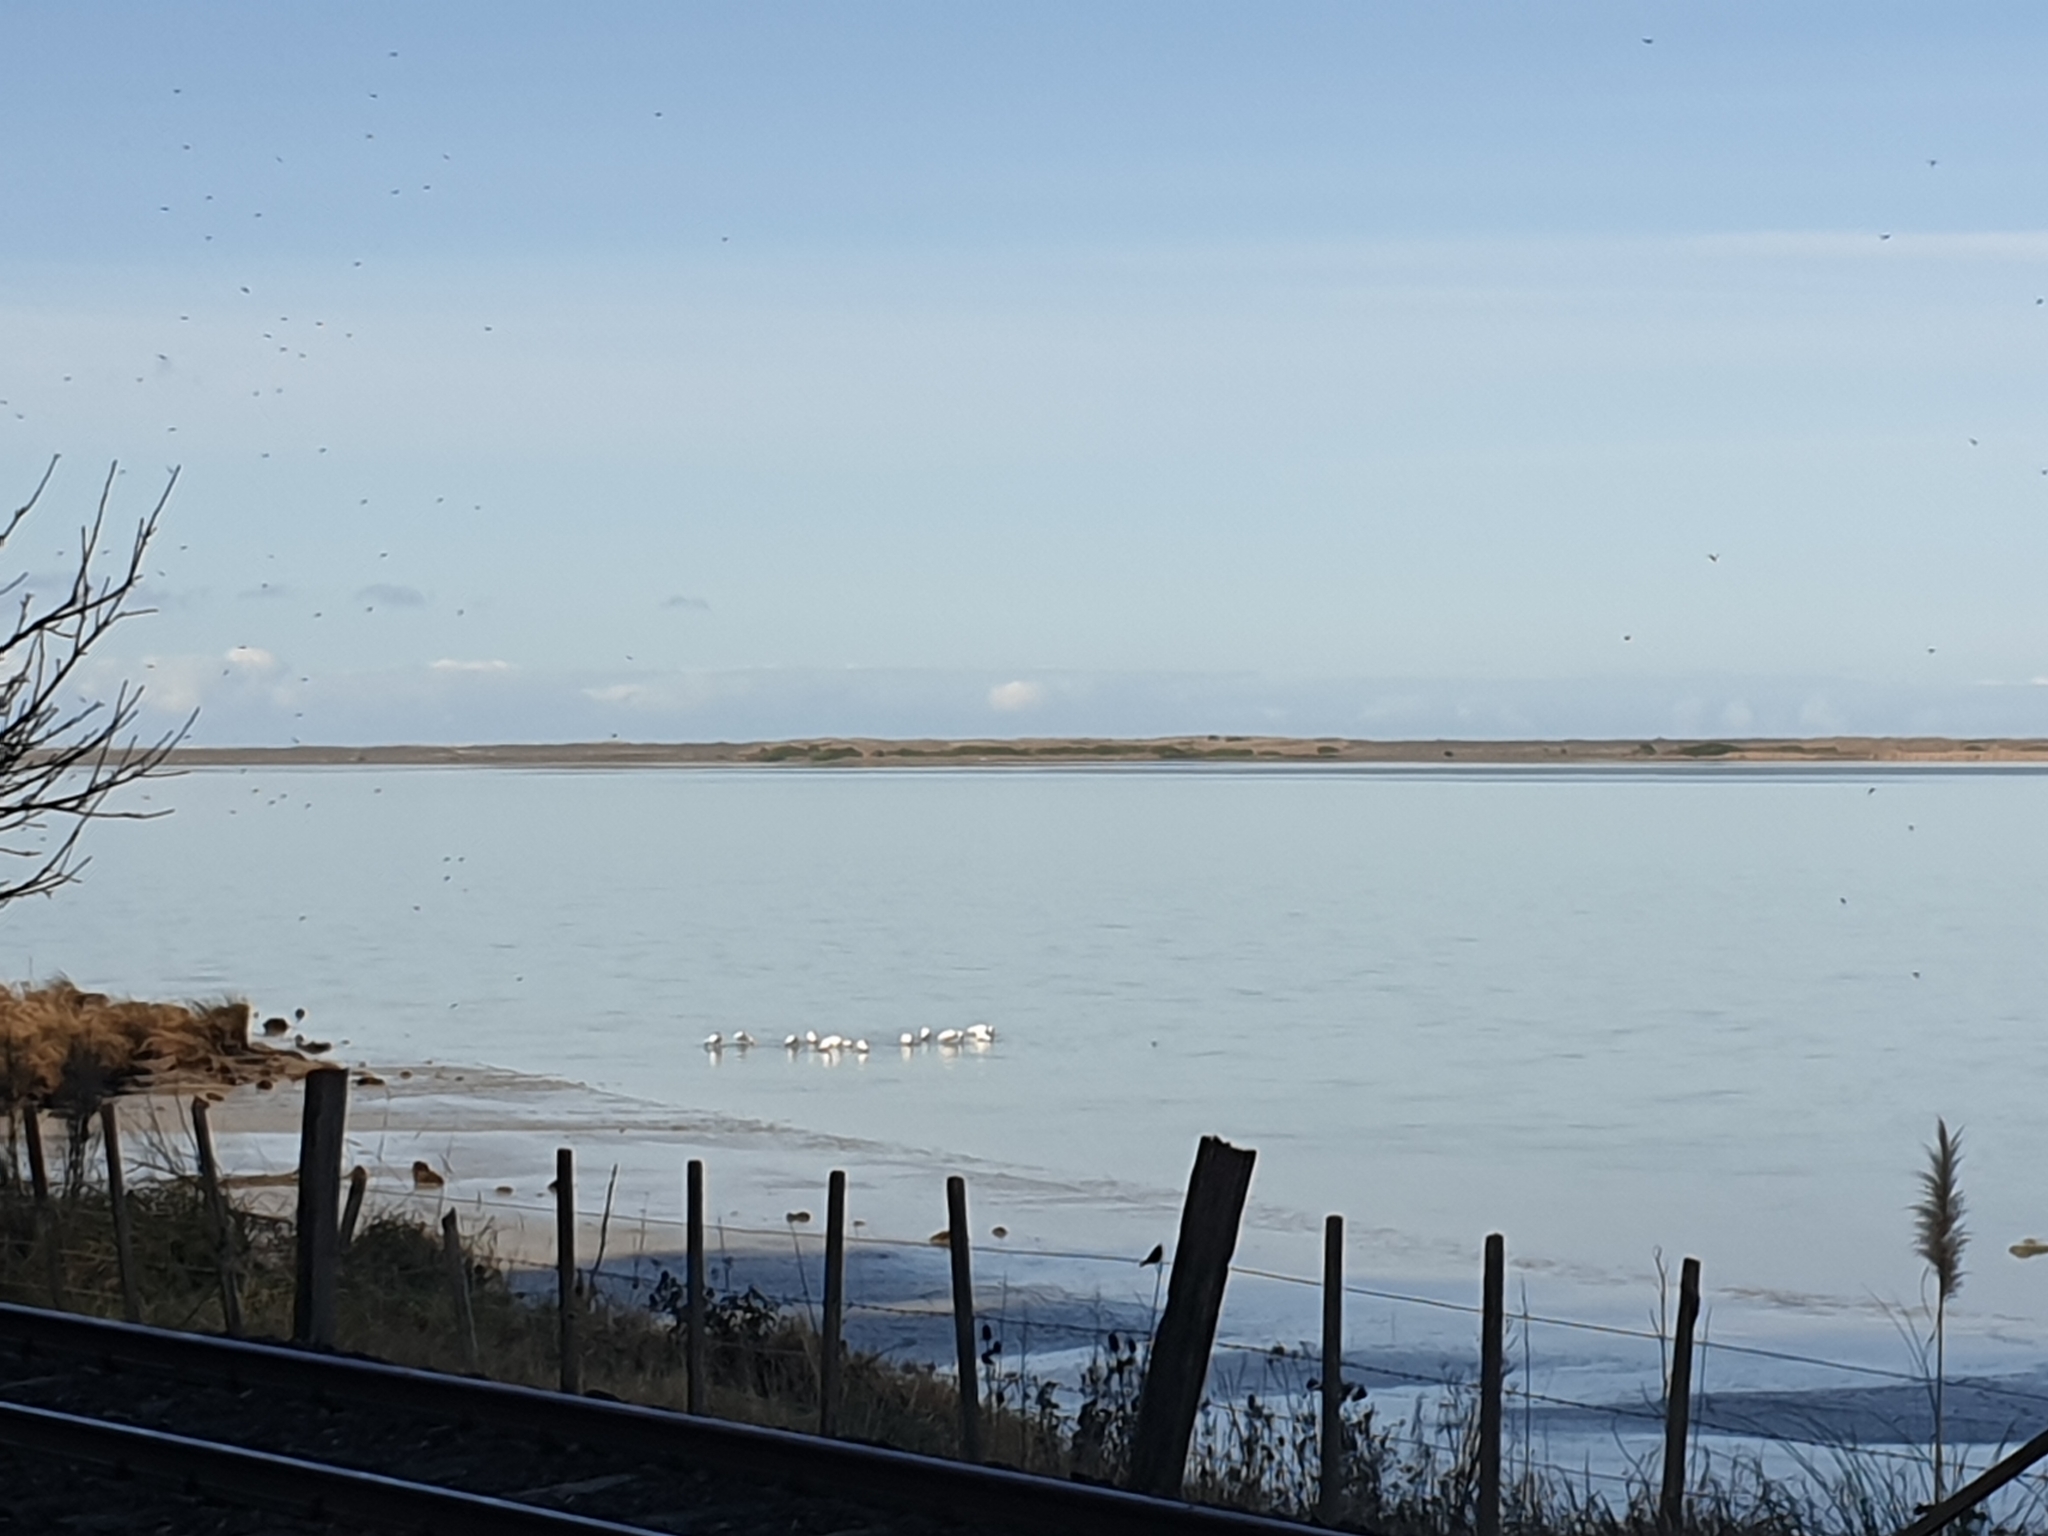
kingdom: Animalia
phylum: Chordata
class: Aves
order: Pelecaniformes
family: Threskiornithidae
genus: Platalea
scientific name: Platalea regia
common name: Royal spoonbill
